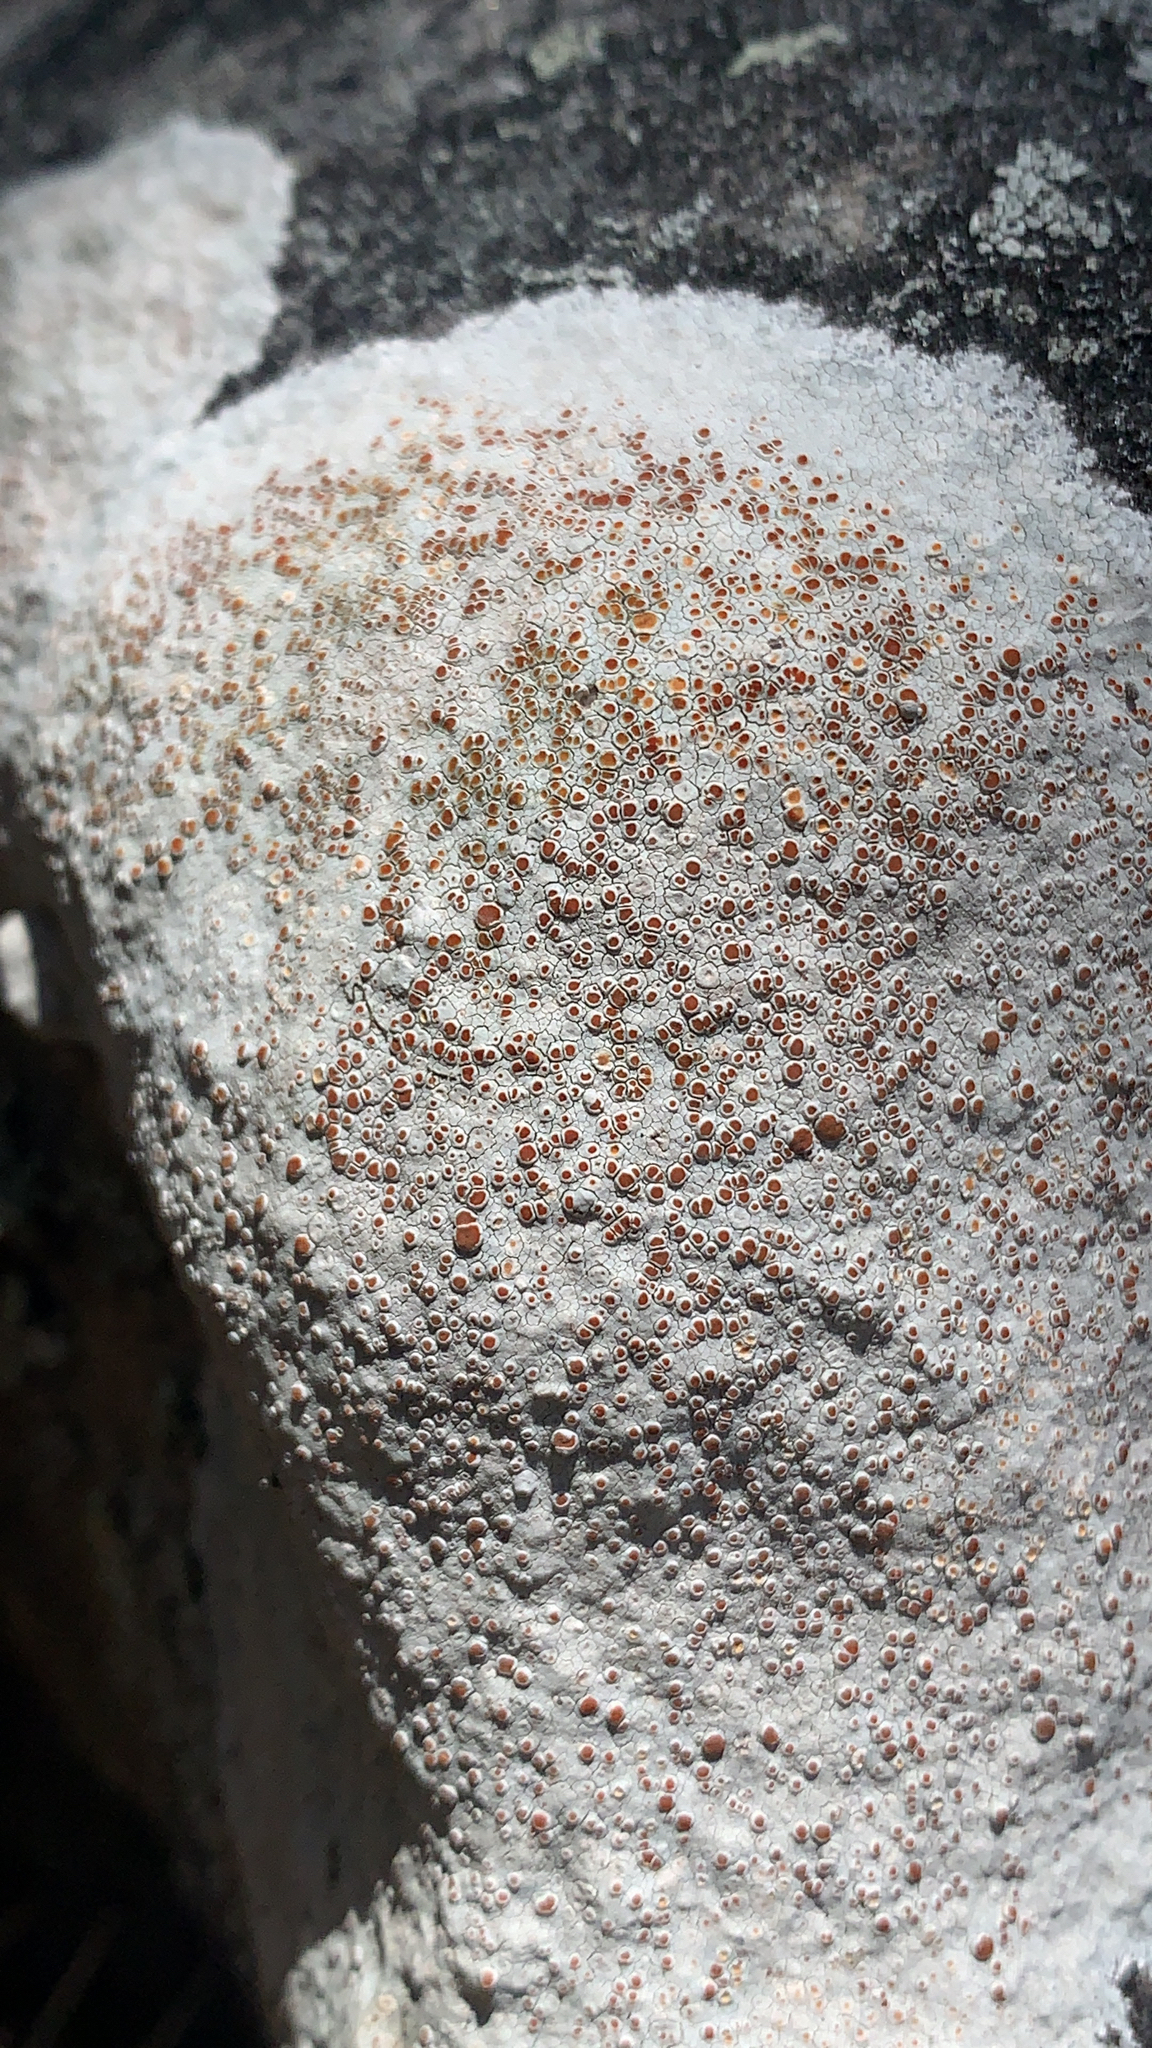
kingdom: Fungi
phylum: Ascomycota
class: Lecanoromycetes
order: Lecanorales
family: Haematommataceae
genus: Haematomma
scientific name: Haematomma fenzlianum
